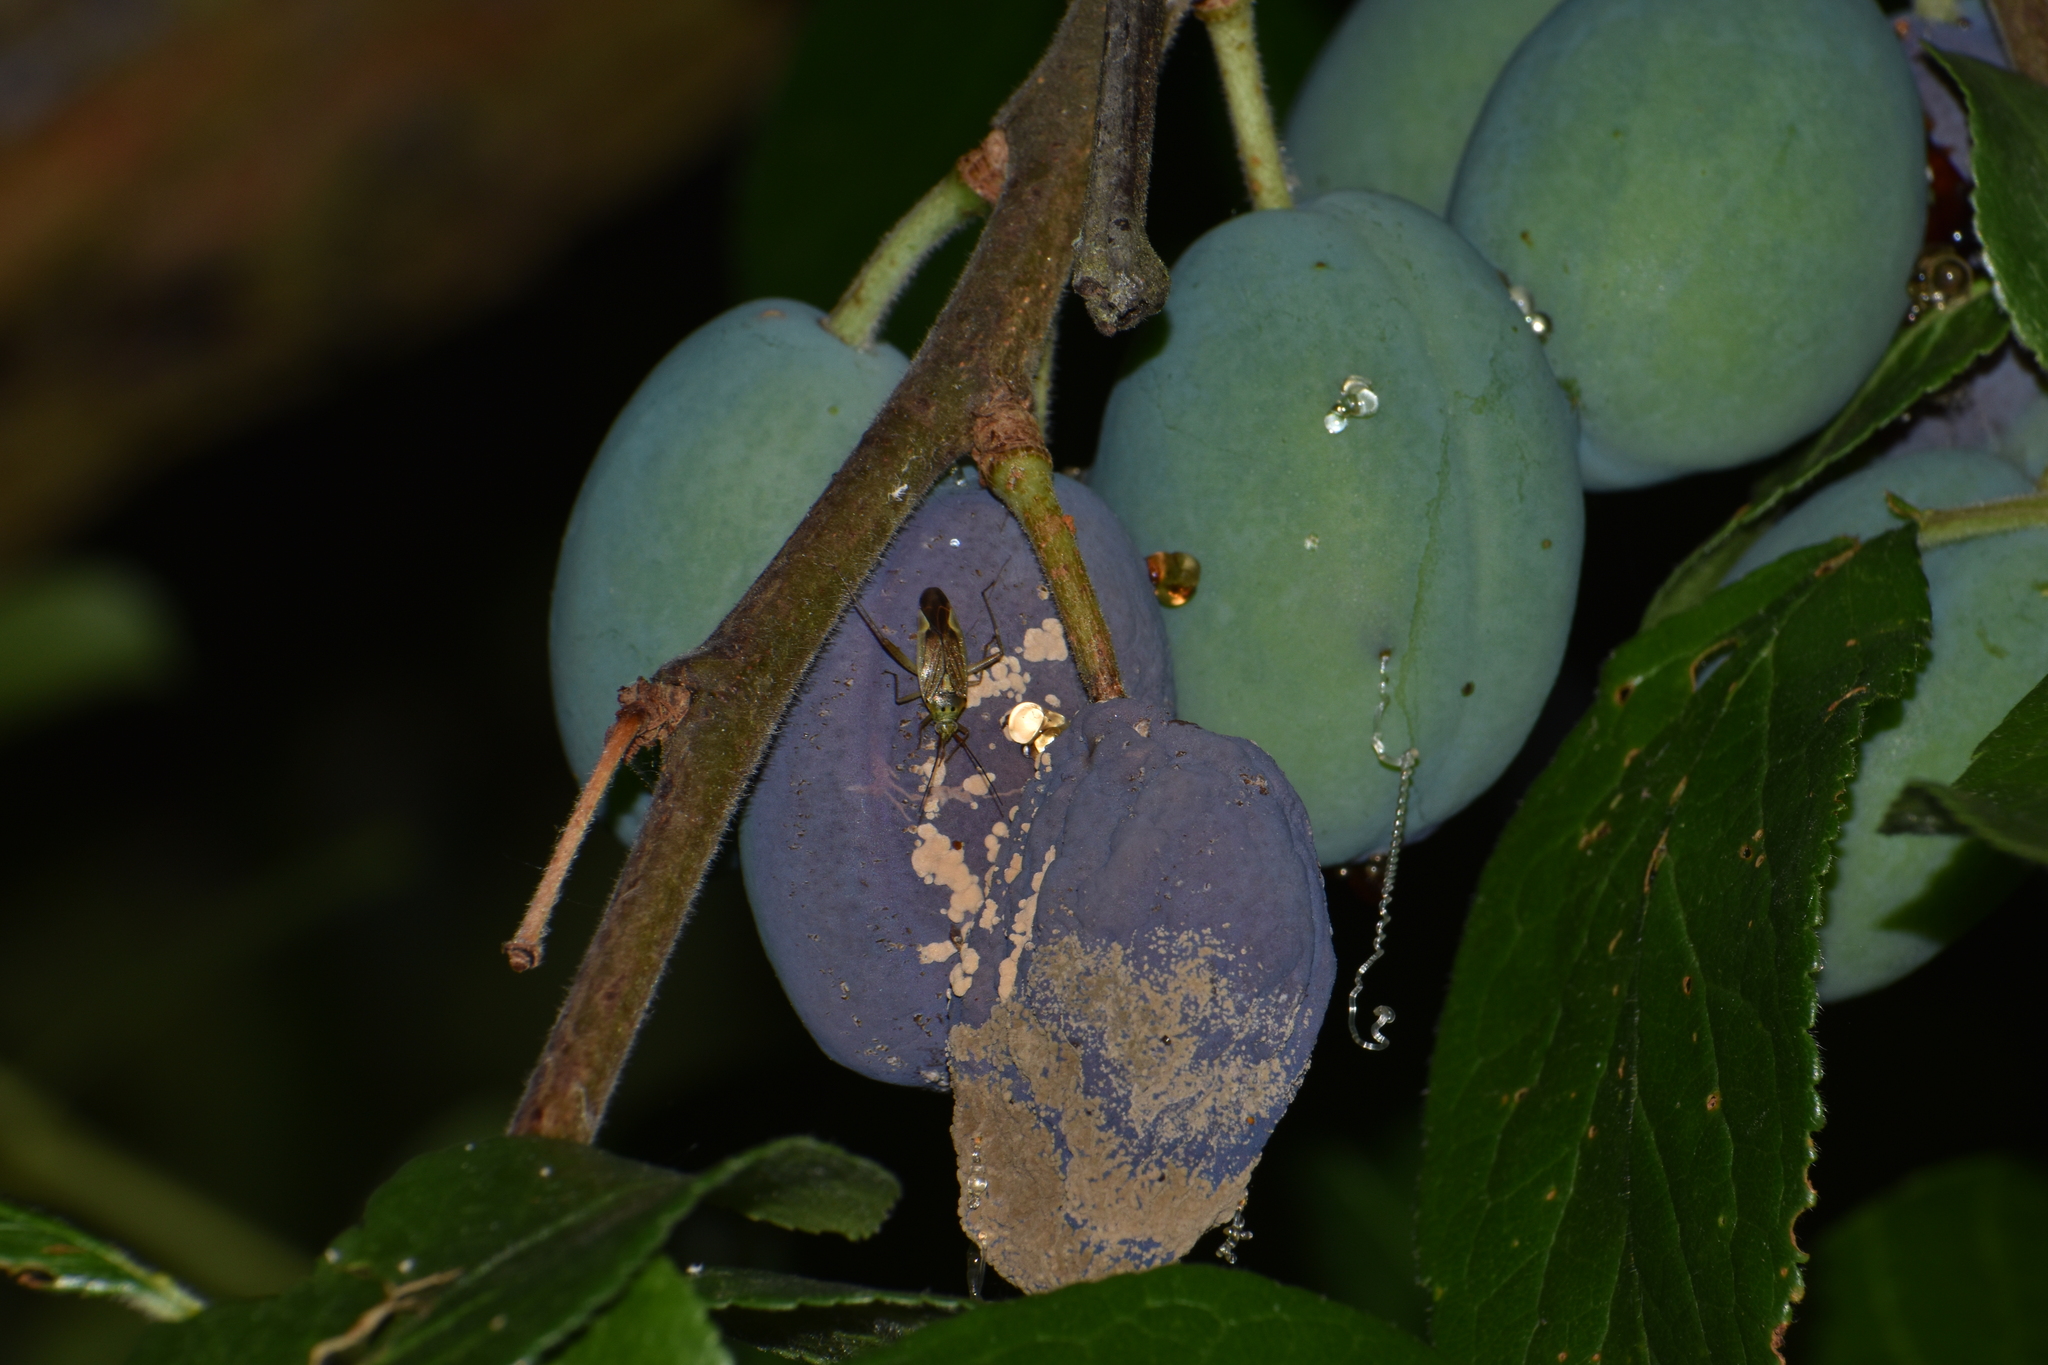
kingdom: Animalia
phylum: Arthropoda
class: Insecta
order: Hemiptera
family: Miridae
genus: Closterotomus
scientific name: Closterotomus trivialis
